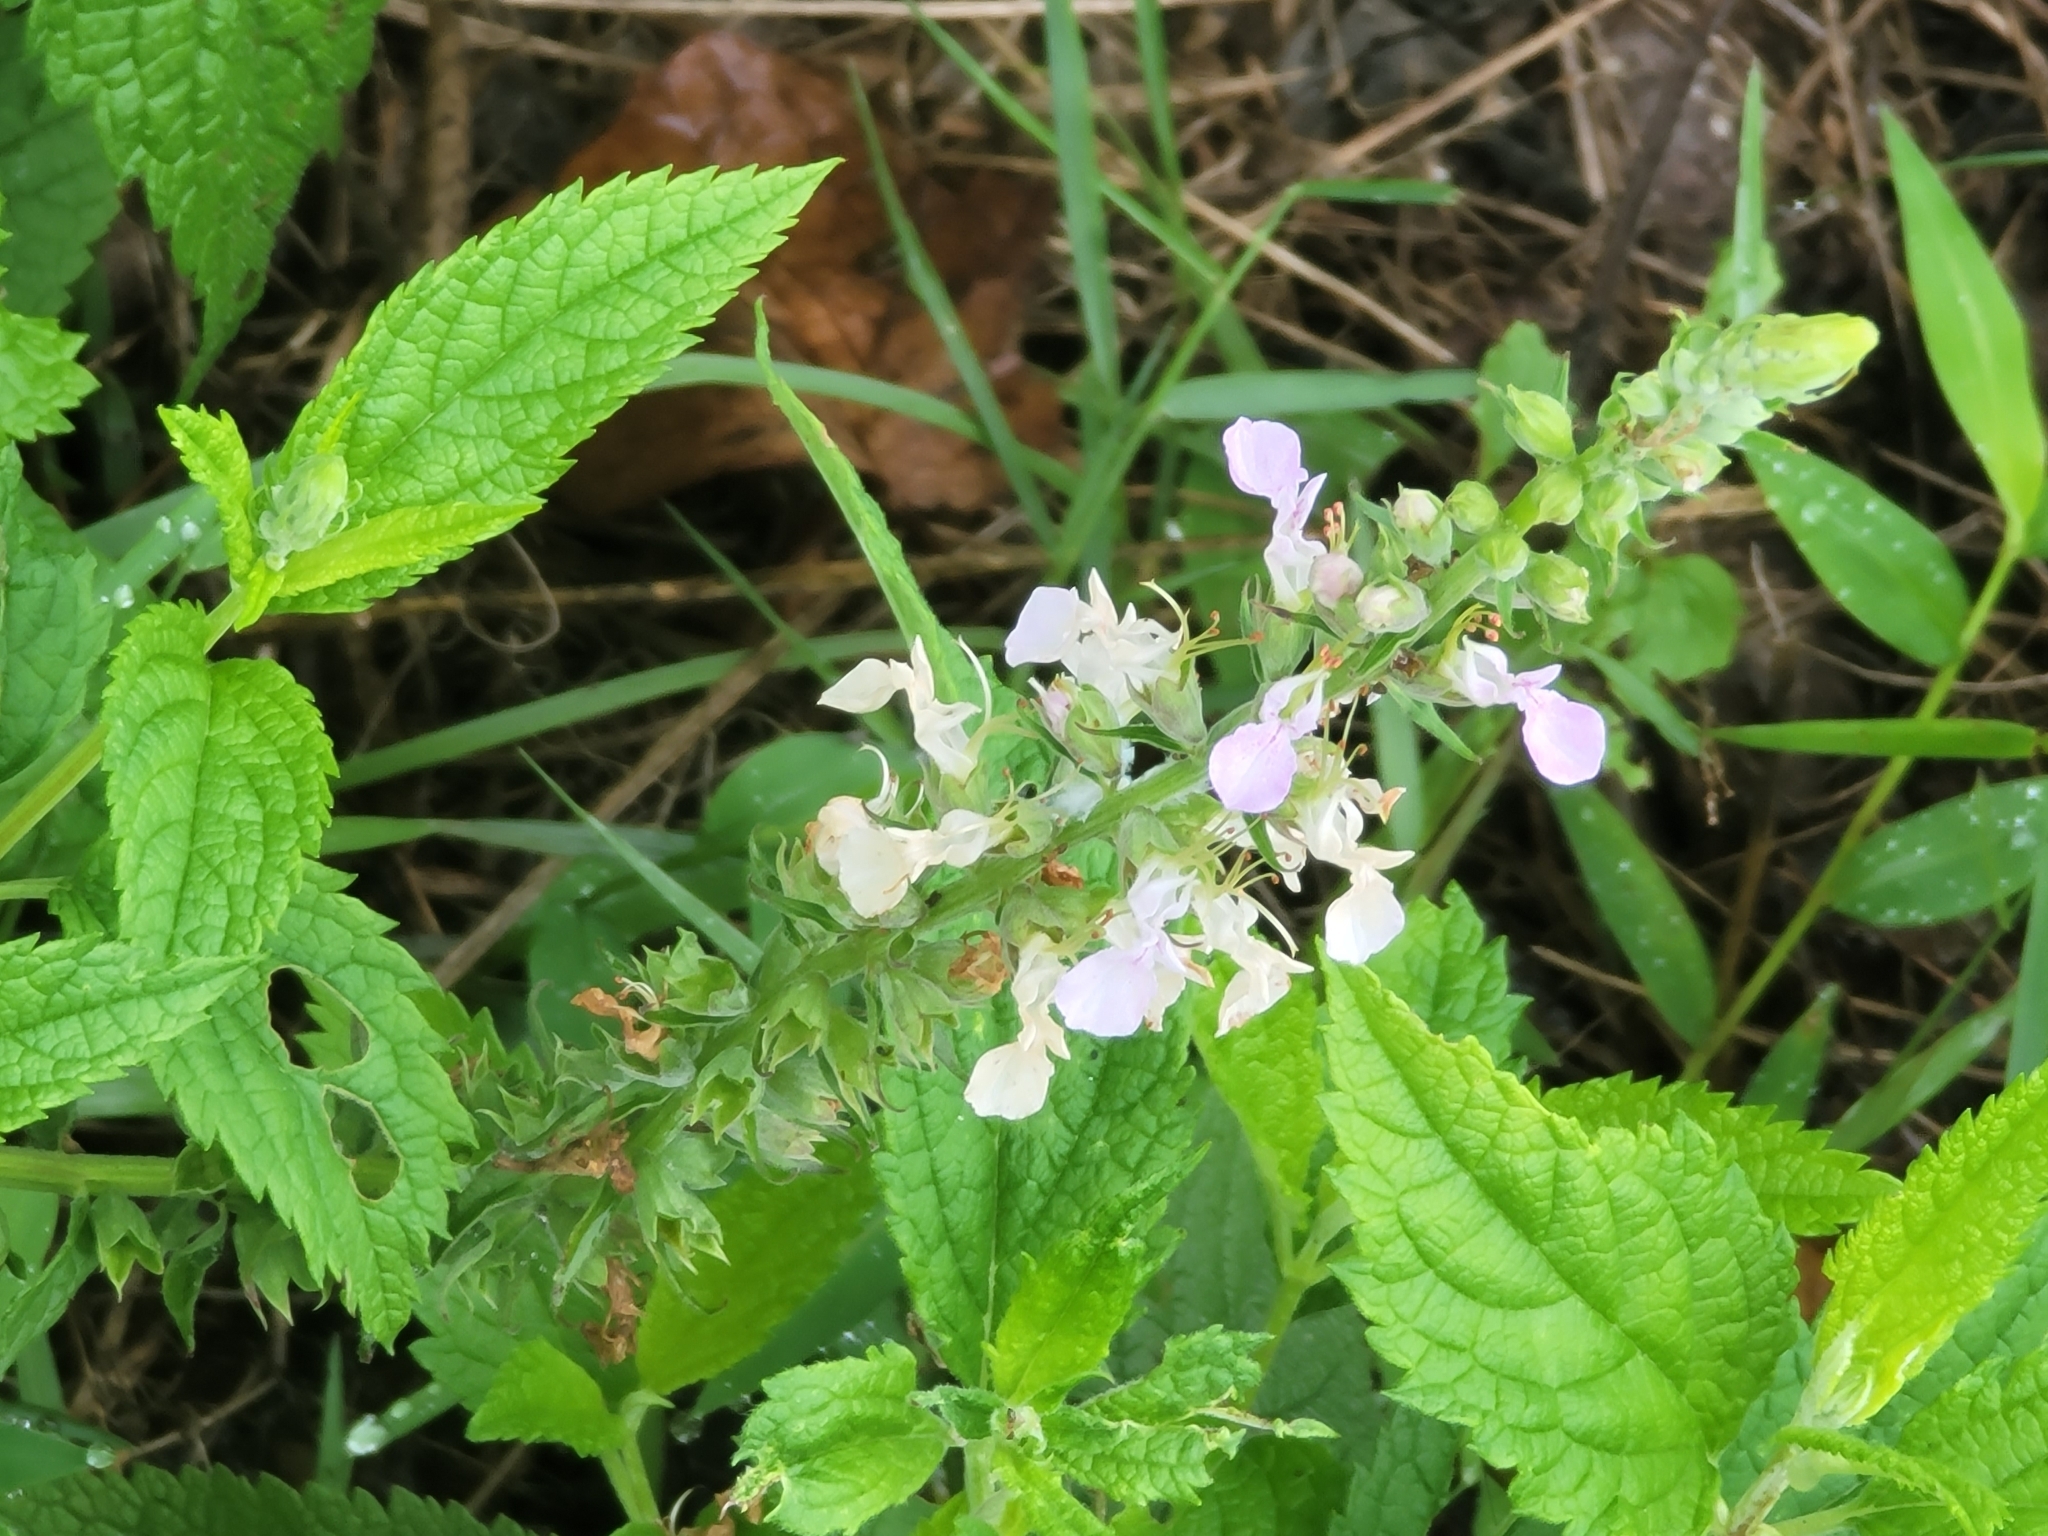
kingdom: Plantae
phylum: Tracheophyta
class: Magnoliopsida
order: Lamiales
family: Lamiaceae
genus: Teucrium
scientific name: Teucrium canadense
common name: American germander
